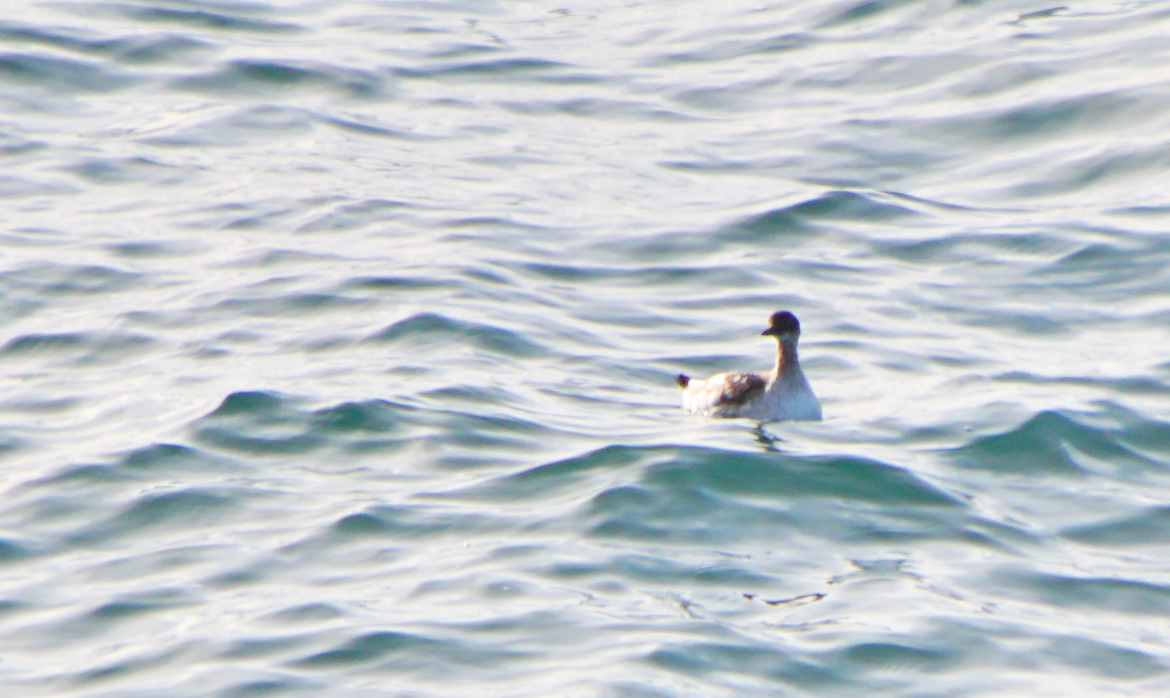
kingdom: Animalia
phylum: Chordata
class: Aves
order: Charadriiformes
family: Alcidae
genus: Cepphus
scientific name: Cepphus columba
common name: Pigeon guillemot
